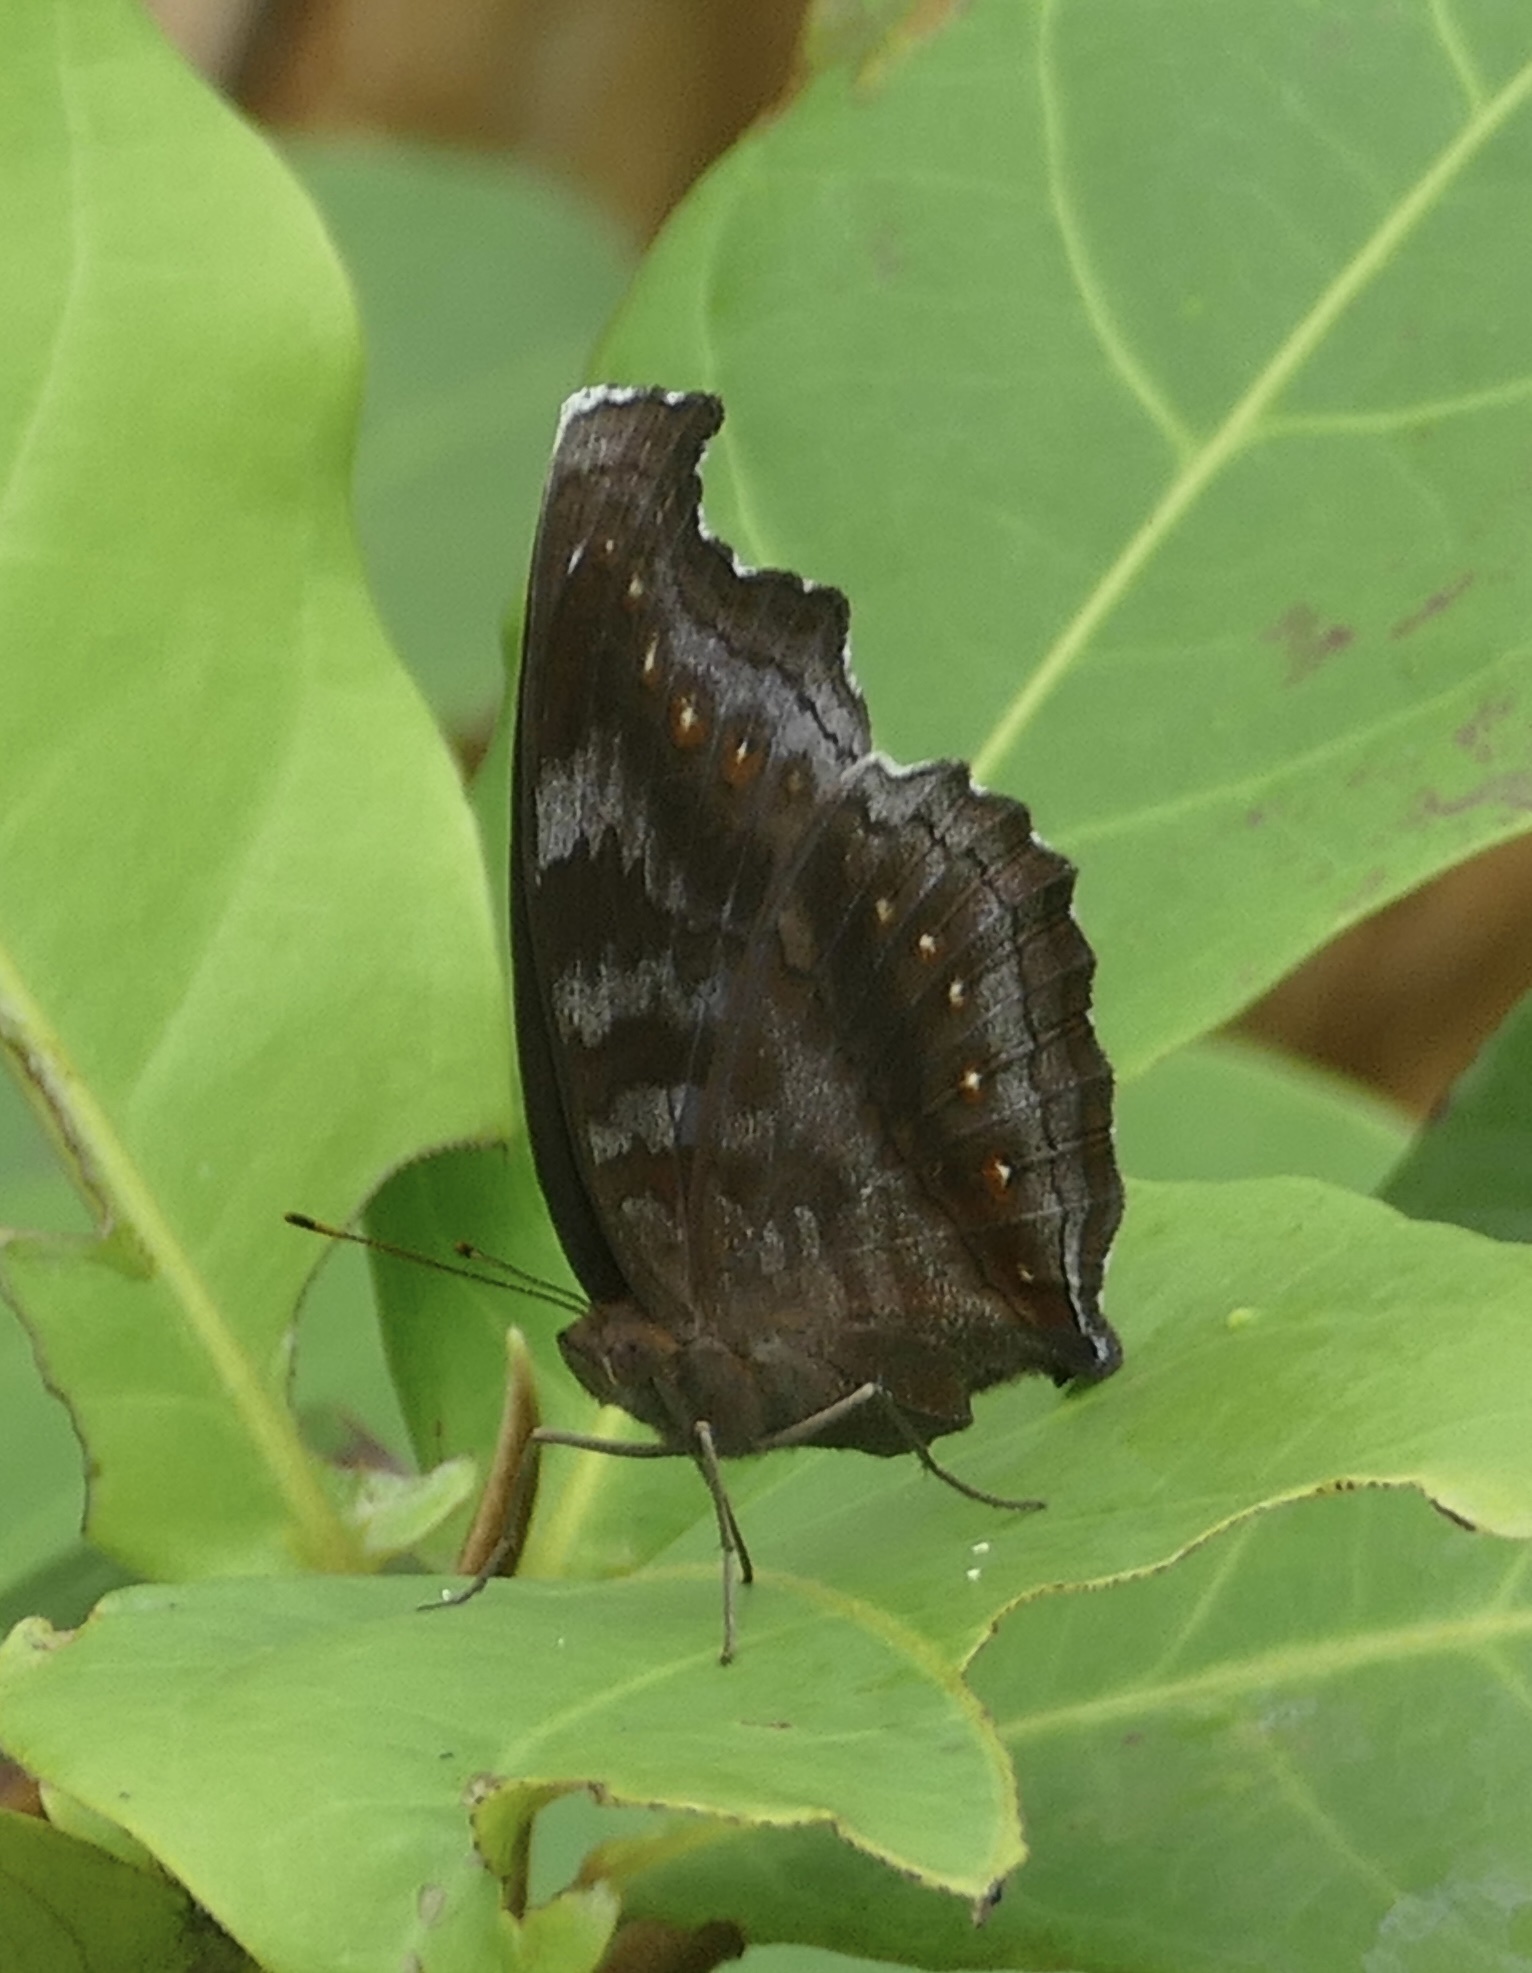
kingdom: Animalia
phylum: Arthropoda
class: Insecta
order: Lepidoptera
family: Nymphalidae
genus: Junonia
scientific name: Junonia
